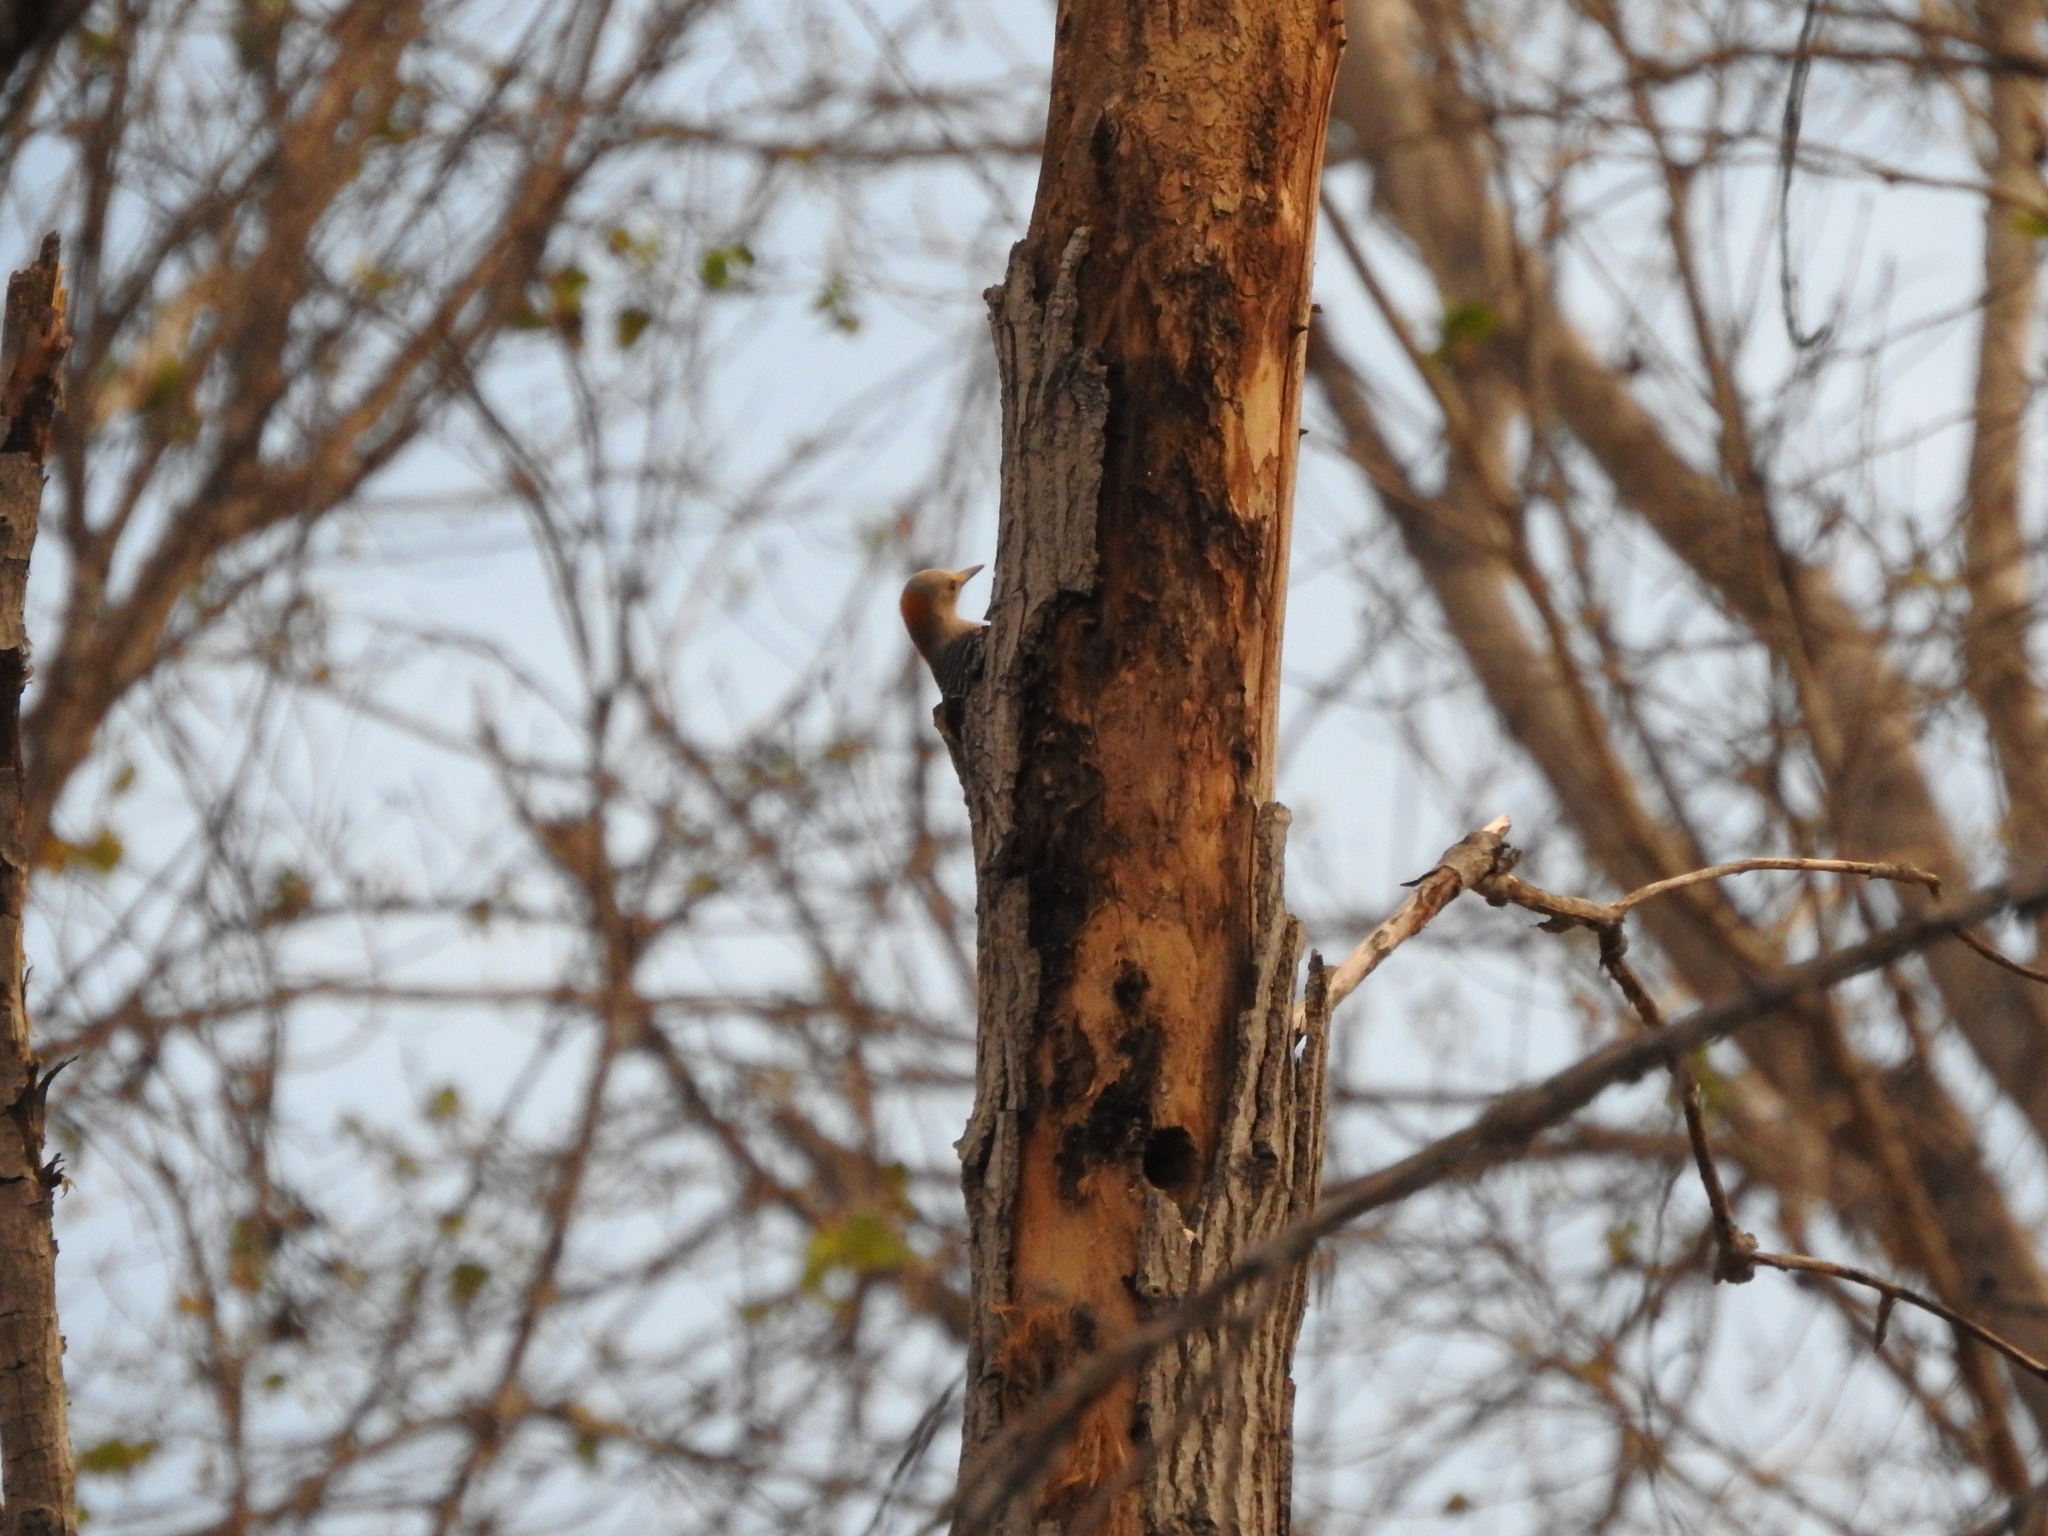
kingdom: Animalia
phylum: Chordata
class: Aves
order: Piciformes
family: Picidae
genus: Melanerpes
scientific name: Melanerpes aurifrons
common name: Golden-fronted woodpecker
